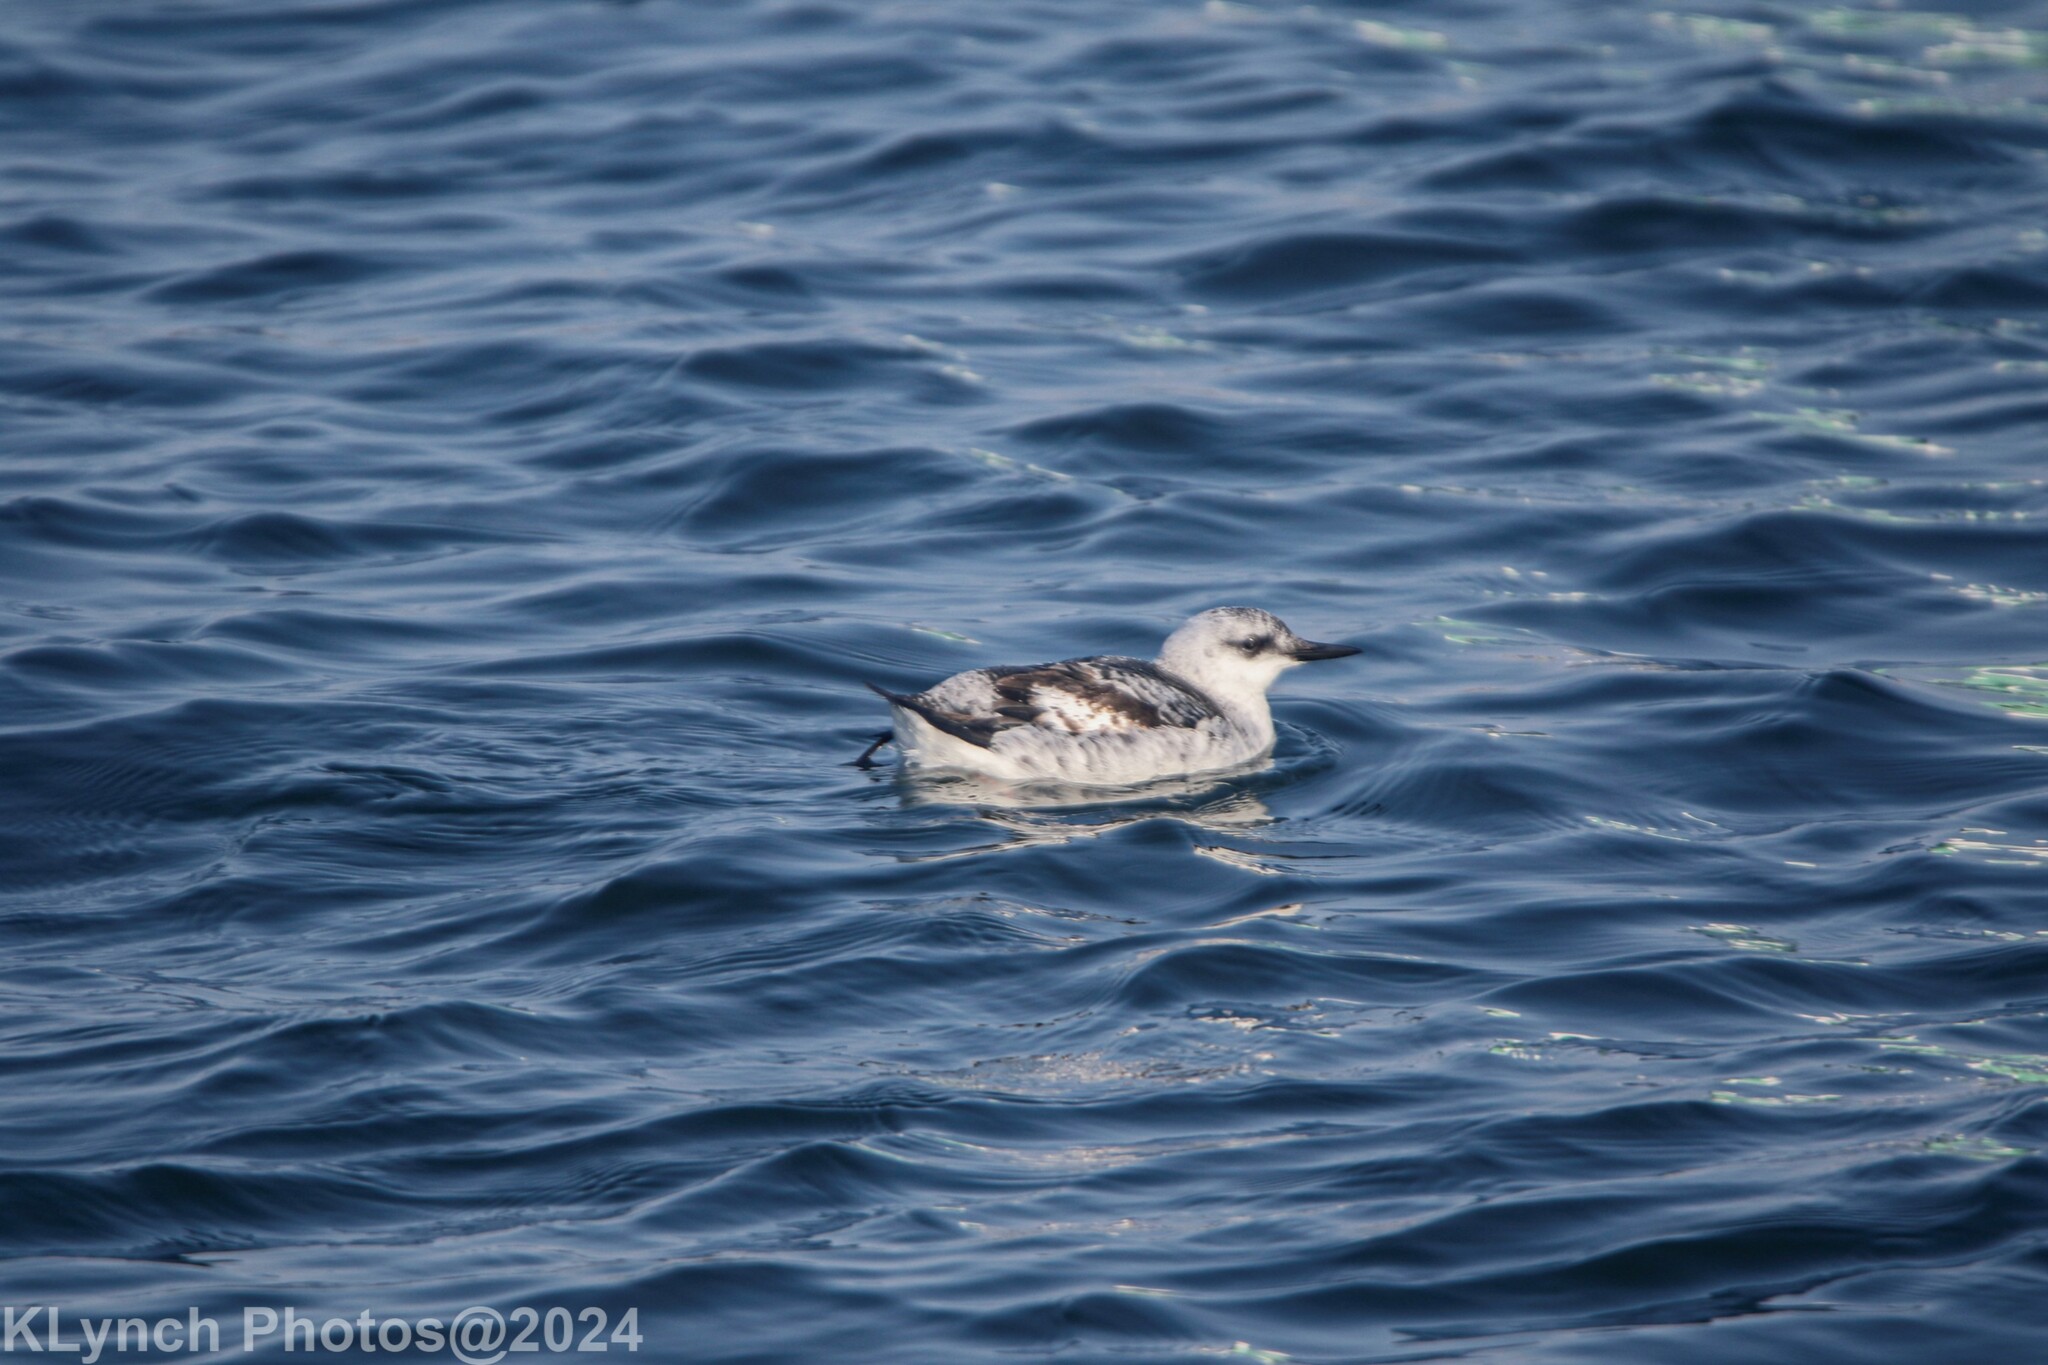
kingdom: Animalia
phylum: Chordata
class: Aves
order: Charadriiformes
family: Alcidae
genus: Cepphus
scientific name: Cepphus grylle
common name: Black guillemot
